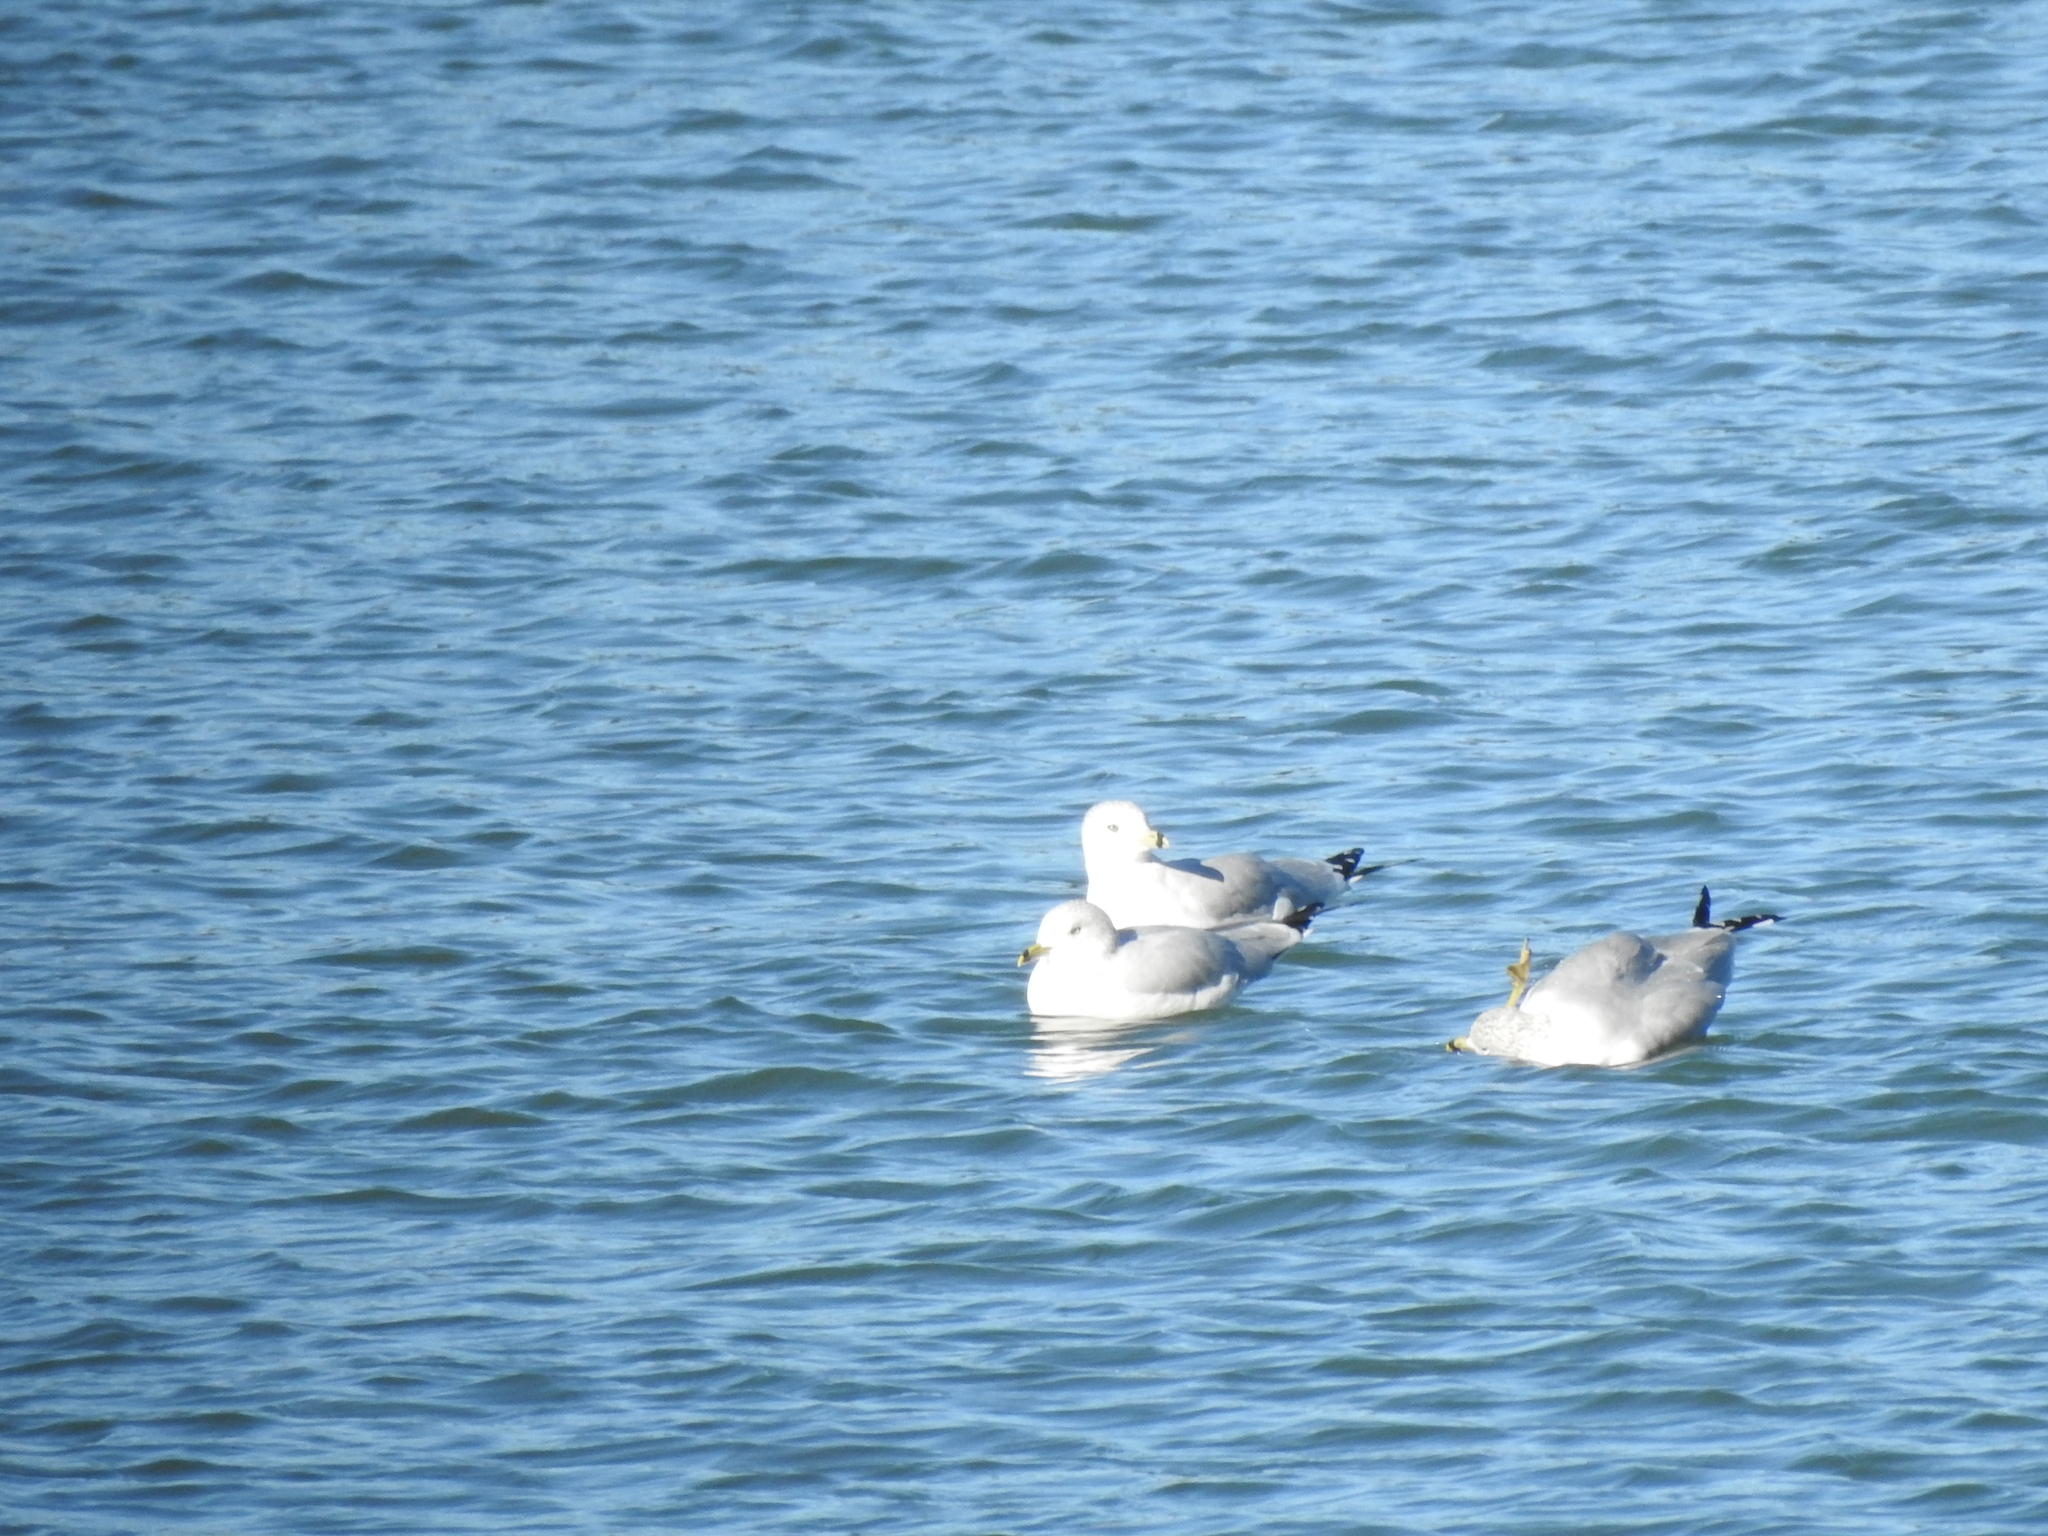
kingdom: Animalia
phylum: Chordata
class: Aves
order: Charadriiformes
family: Laridae
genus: Larus
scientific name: Larus delawarensis
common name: Ring-billed gull
